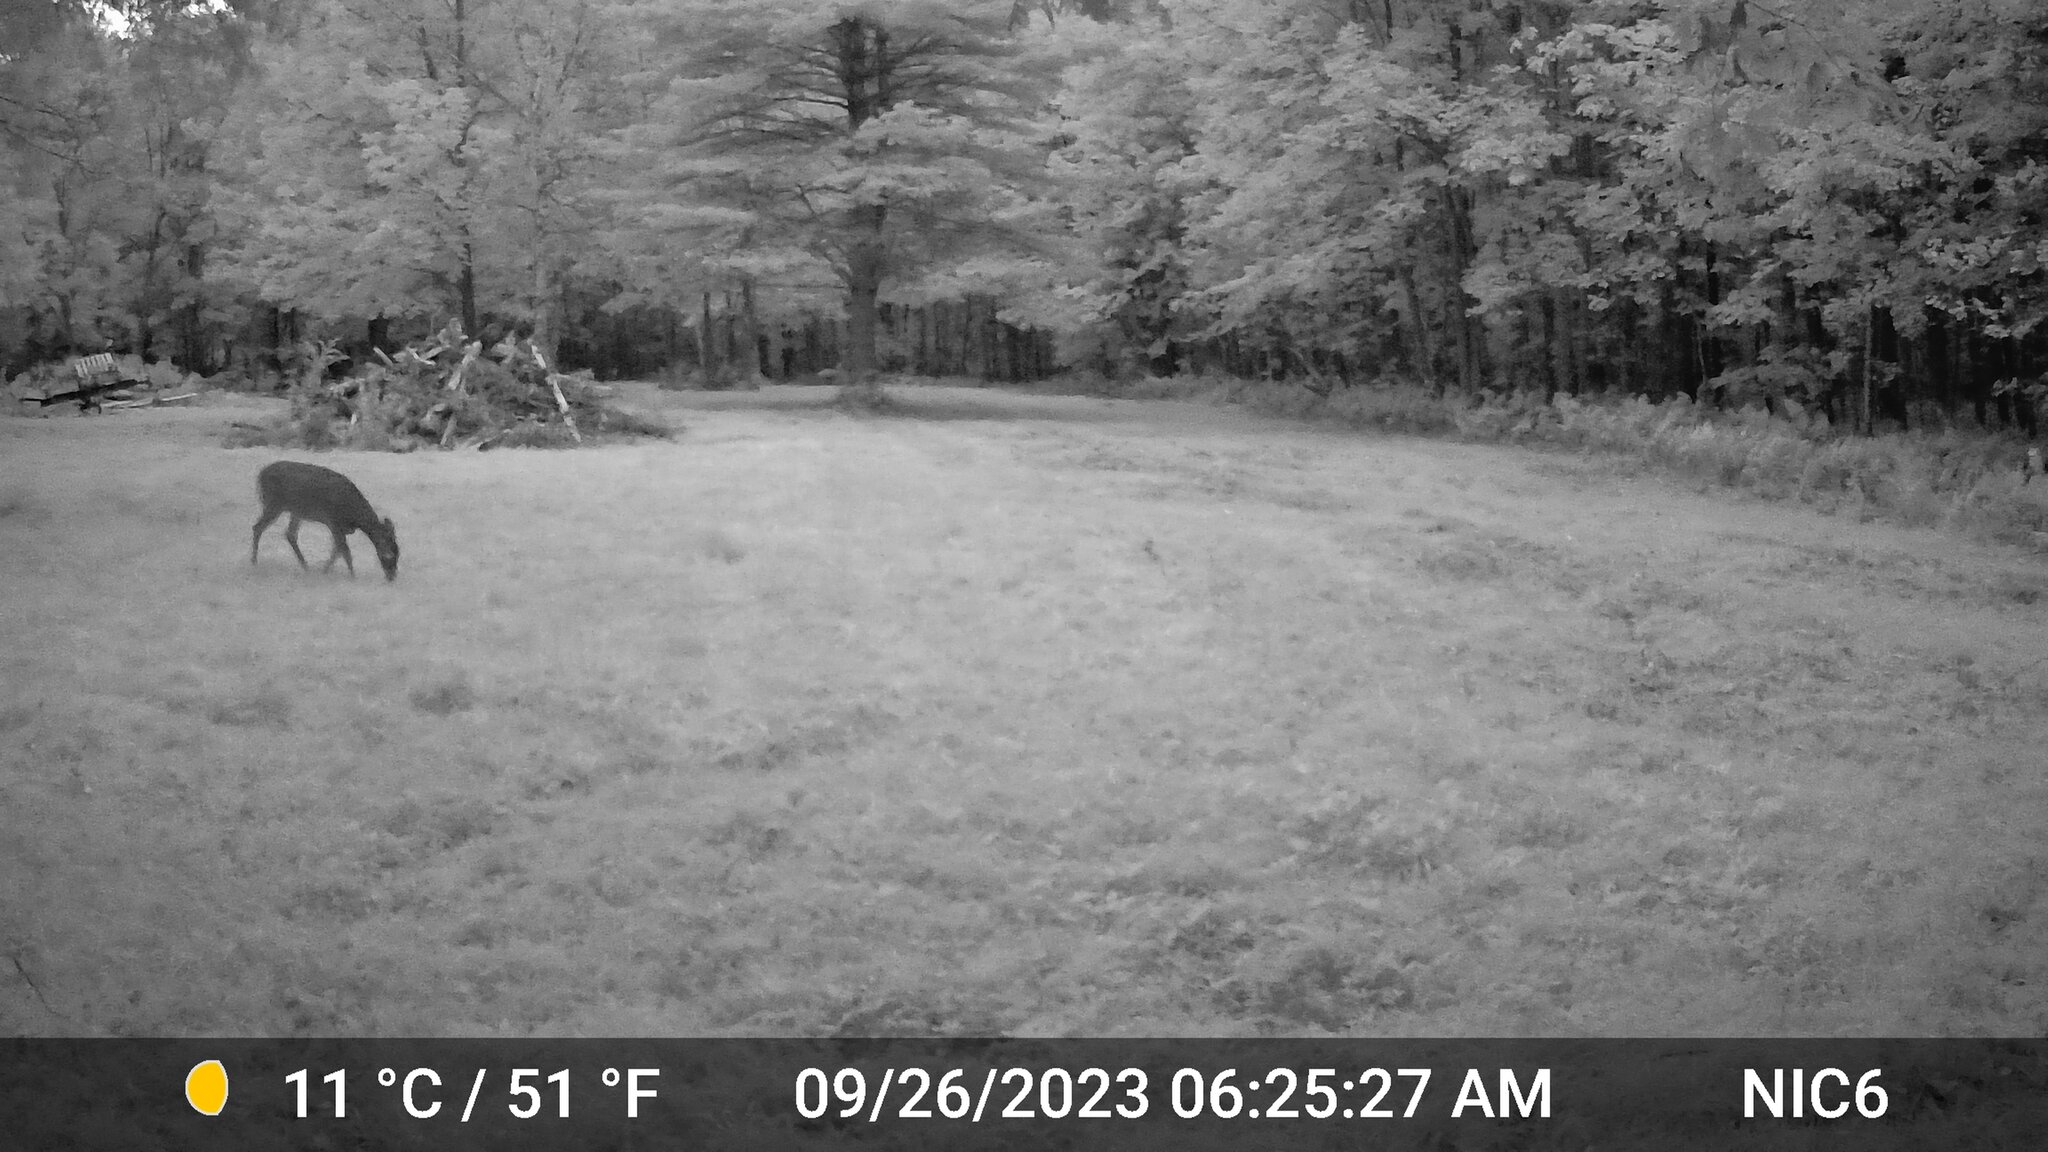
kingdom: Animalia
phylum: Chordata
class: Mammalia
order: Artiodactyla
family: Cervidae
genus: Odocoileus
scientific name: Odocoileus virginianus
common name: White-tailed deer
